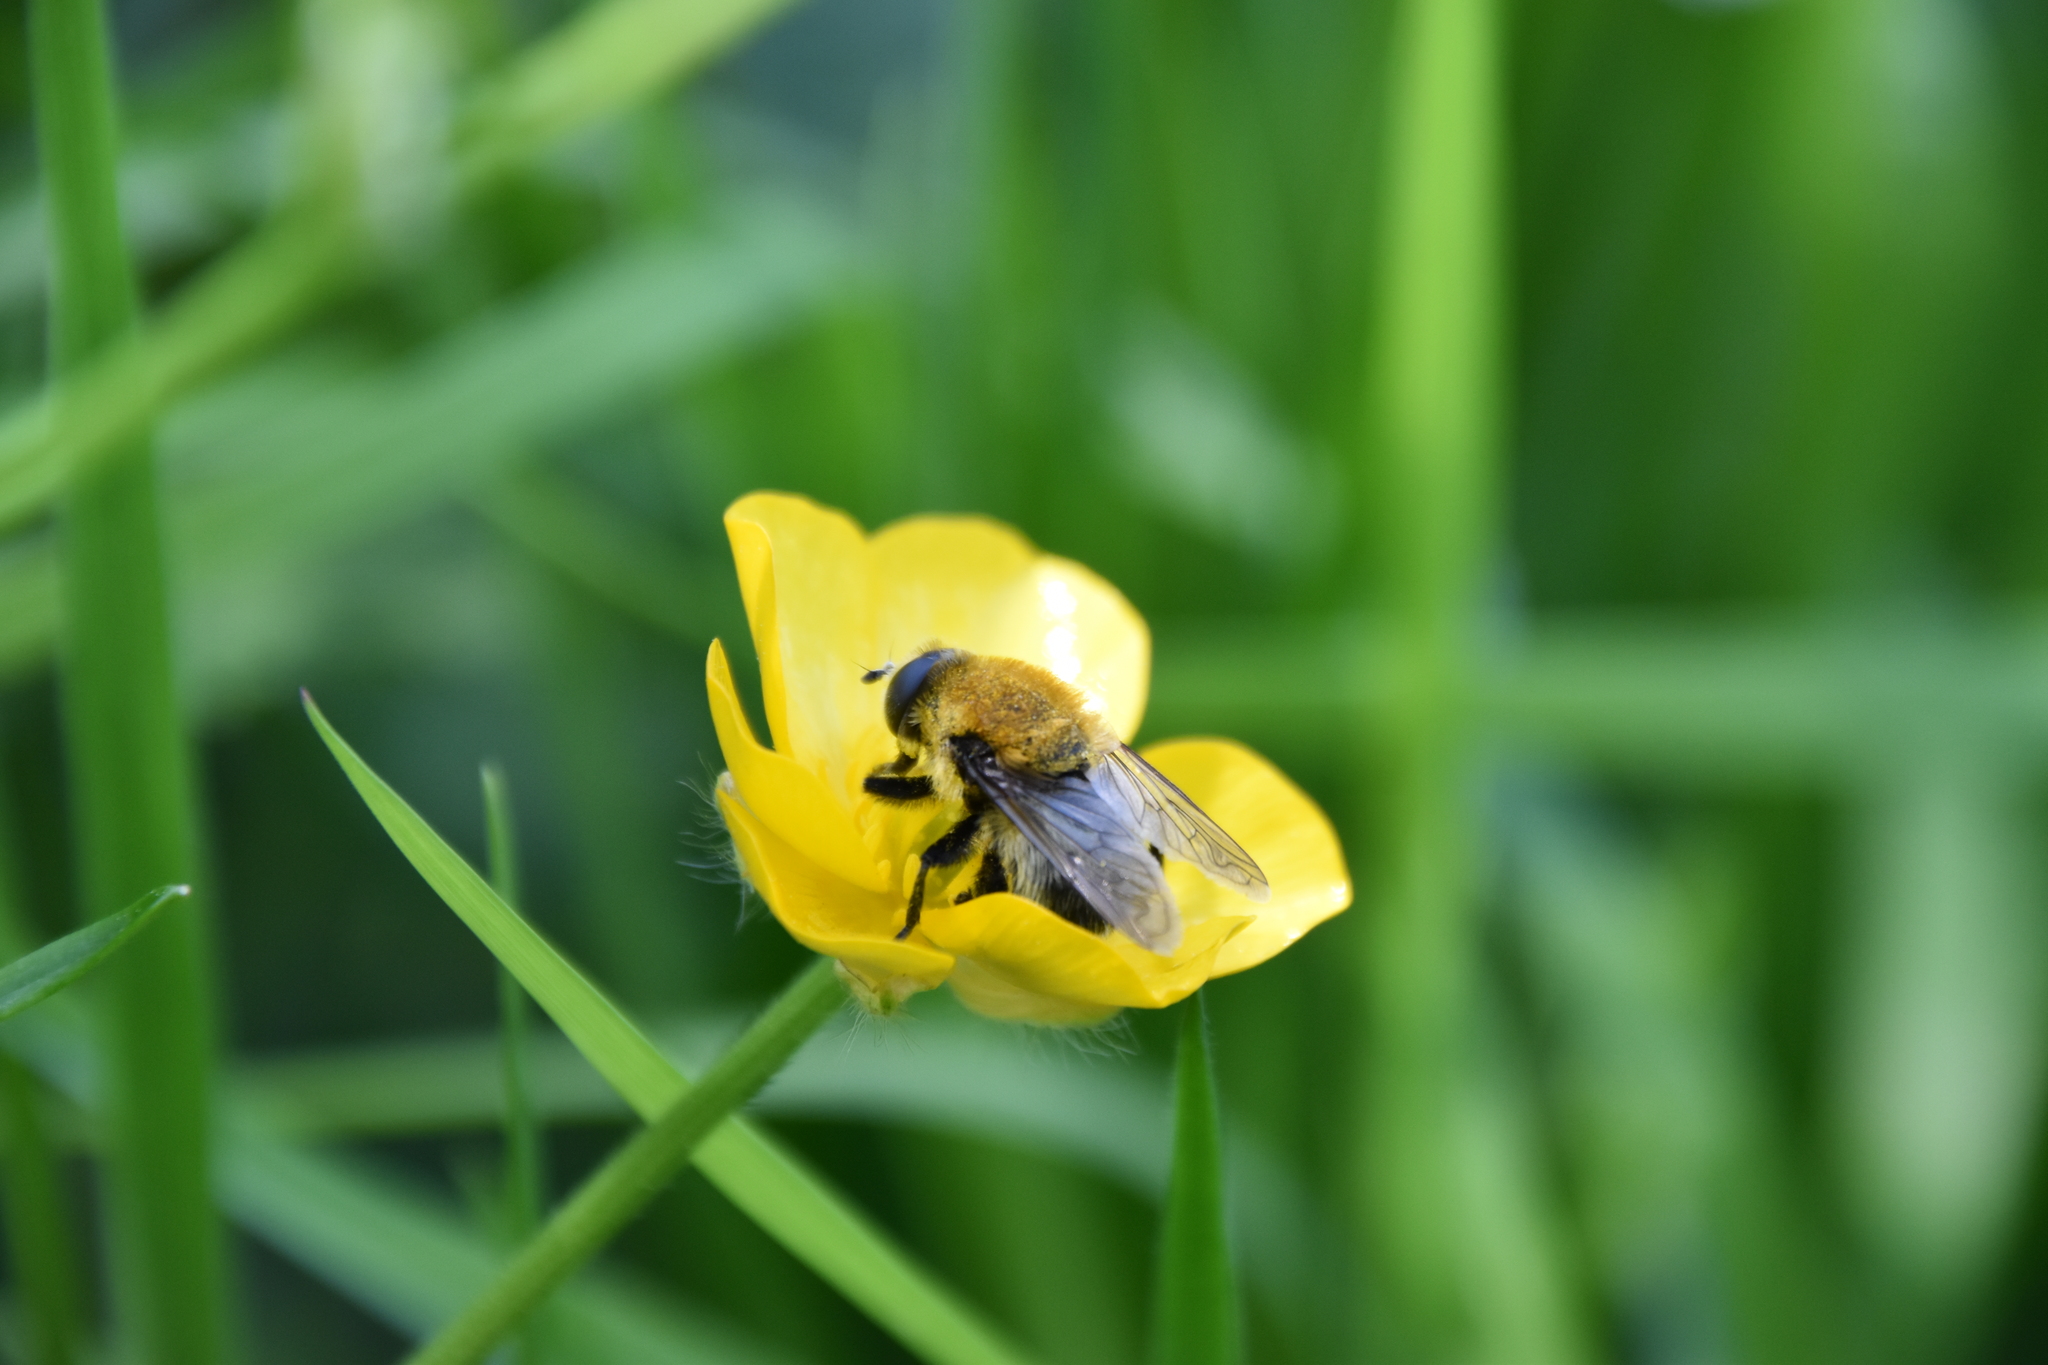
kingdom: Animalia
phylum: Arthropoda
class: Insecta
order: Diptera
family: Syrphidae
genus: Merodon
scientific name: Merodon equestris
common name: Greater bulb-fly
